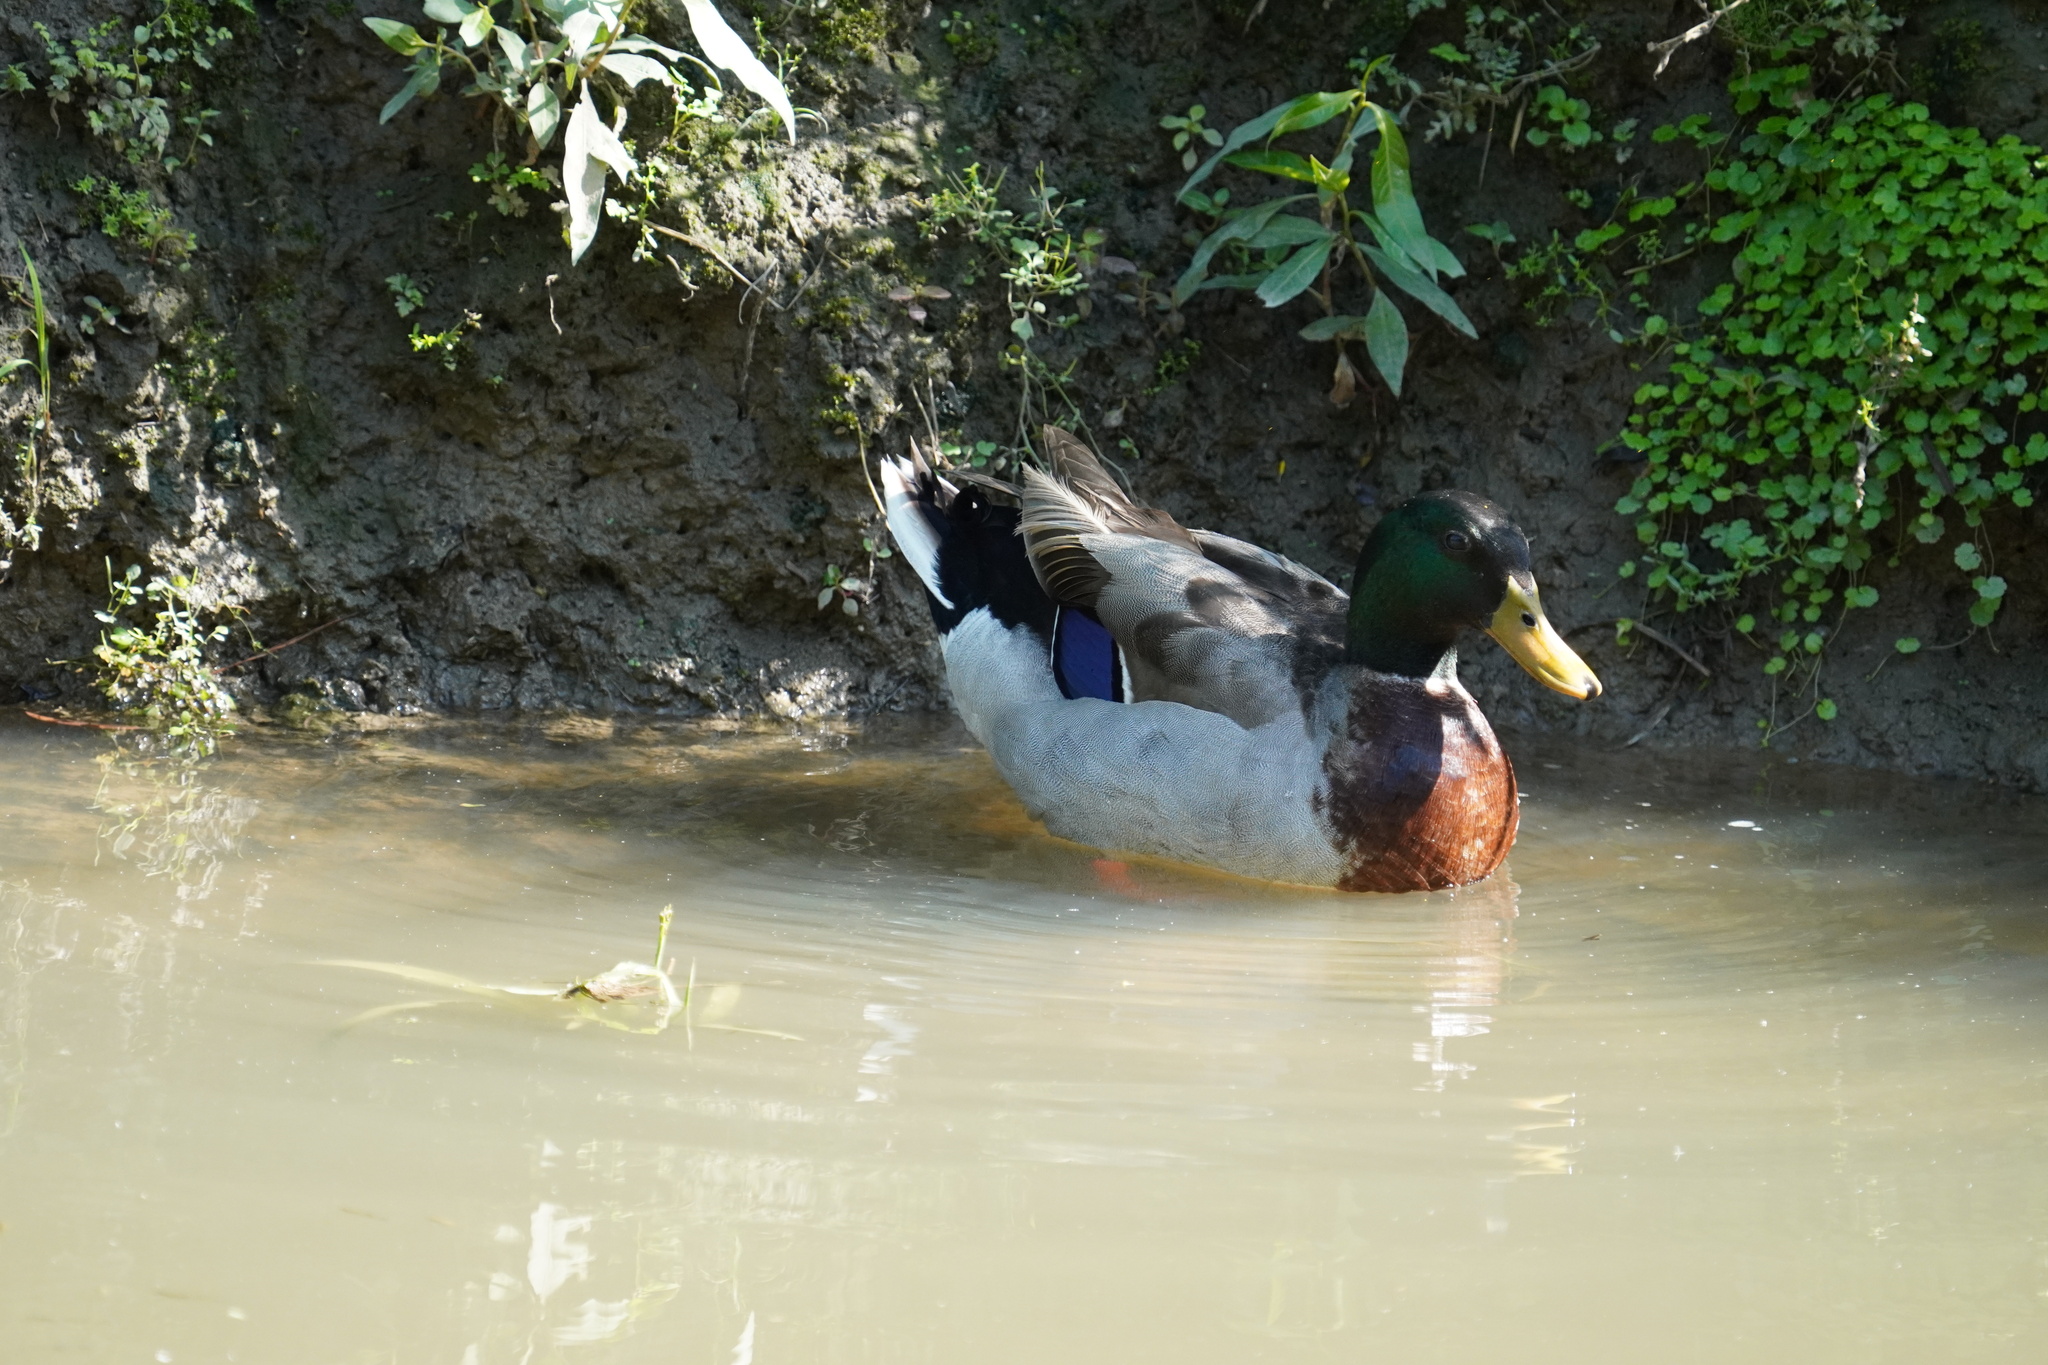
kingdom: Animalia
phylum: Chordata
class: Aves
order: Anseriformes
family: Anatidae
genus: Anas
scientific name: Anas platyrhynchos
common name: Mallard
